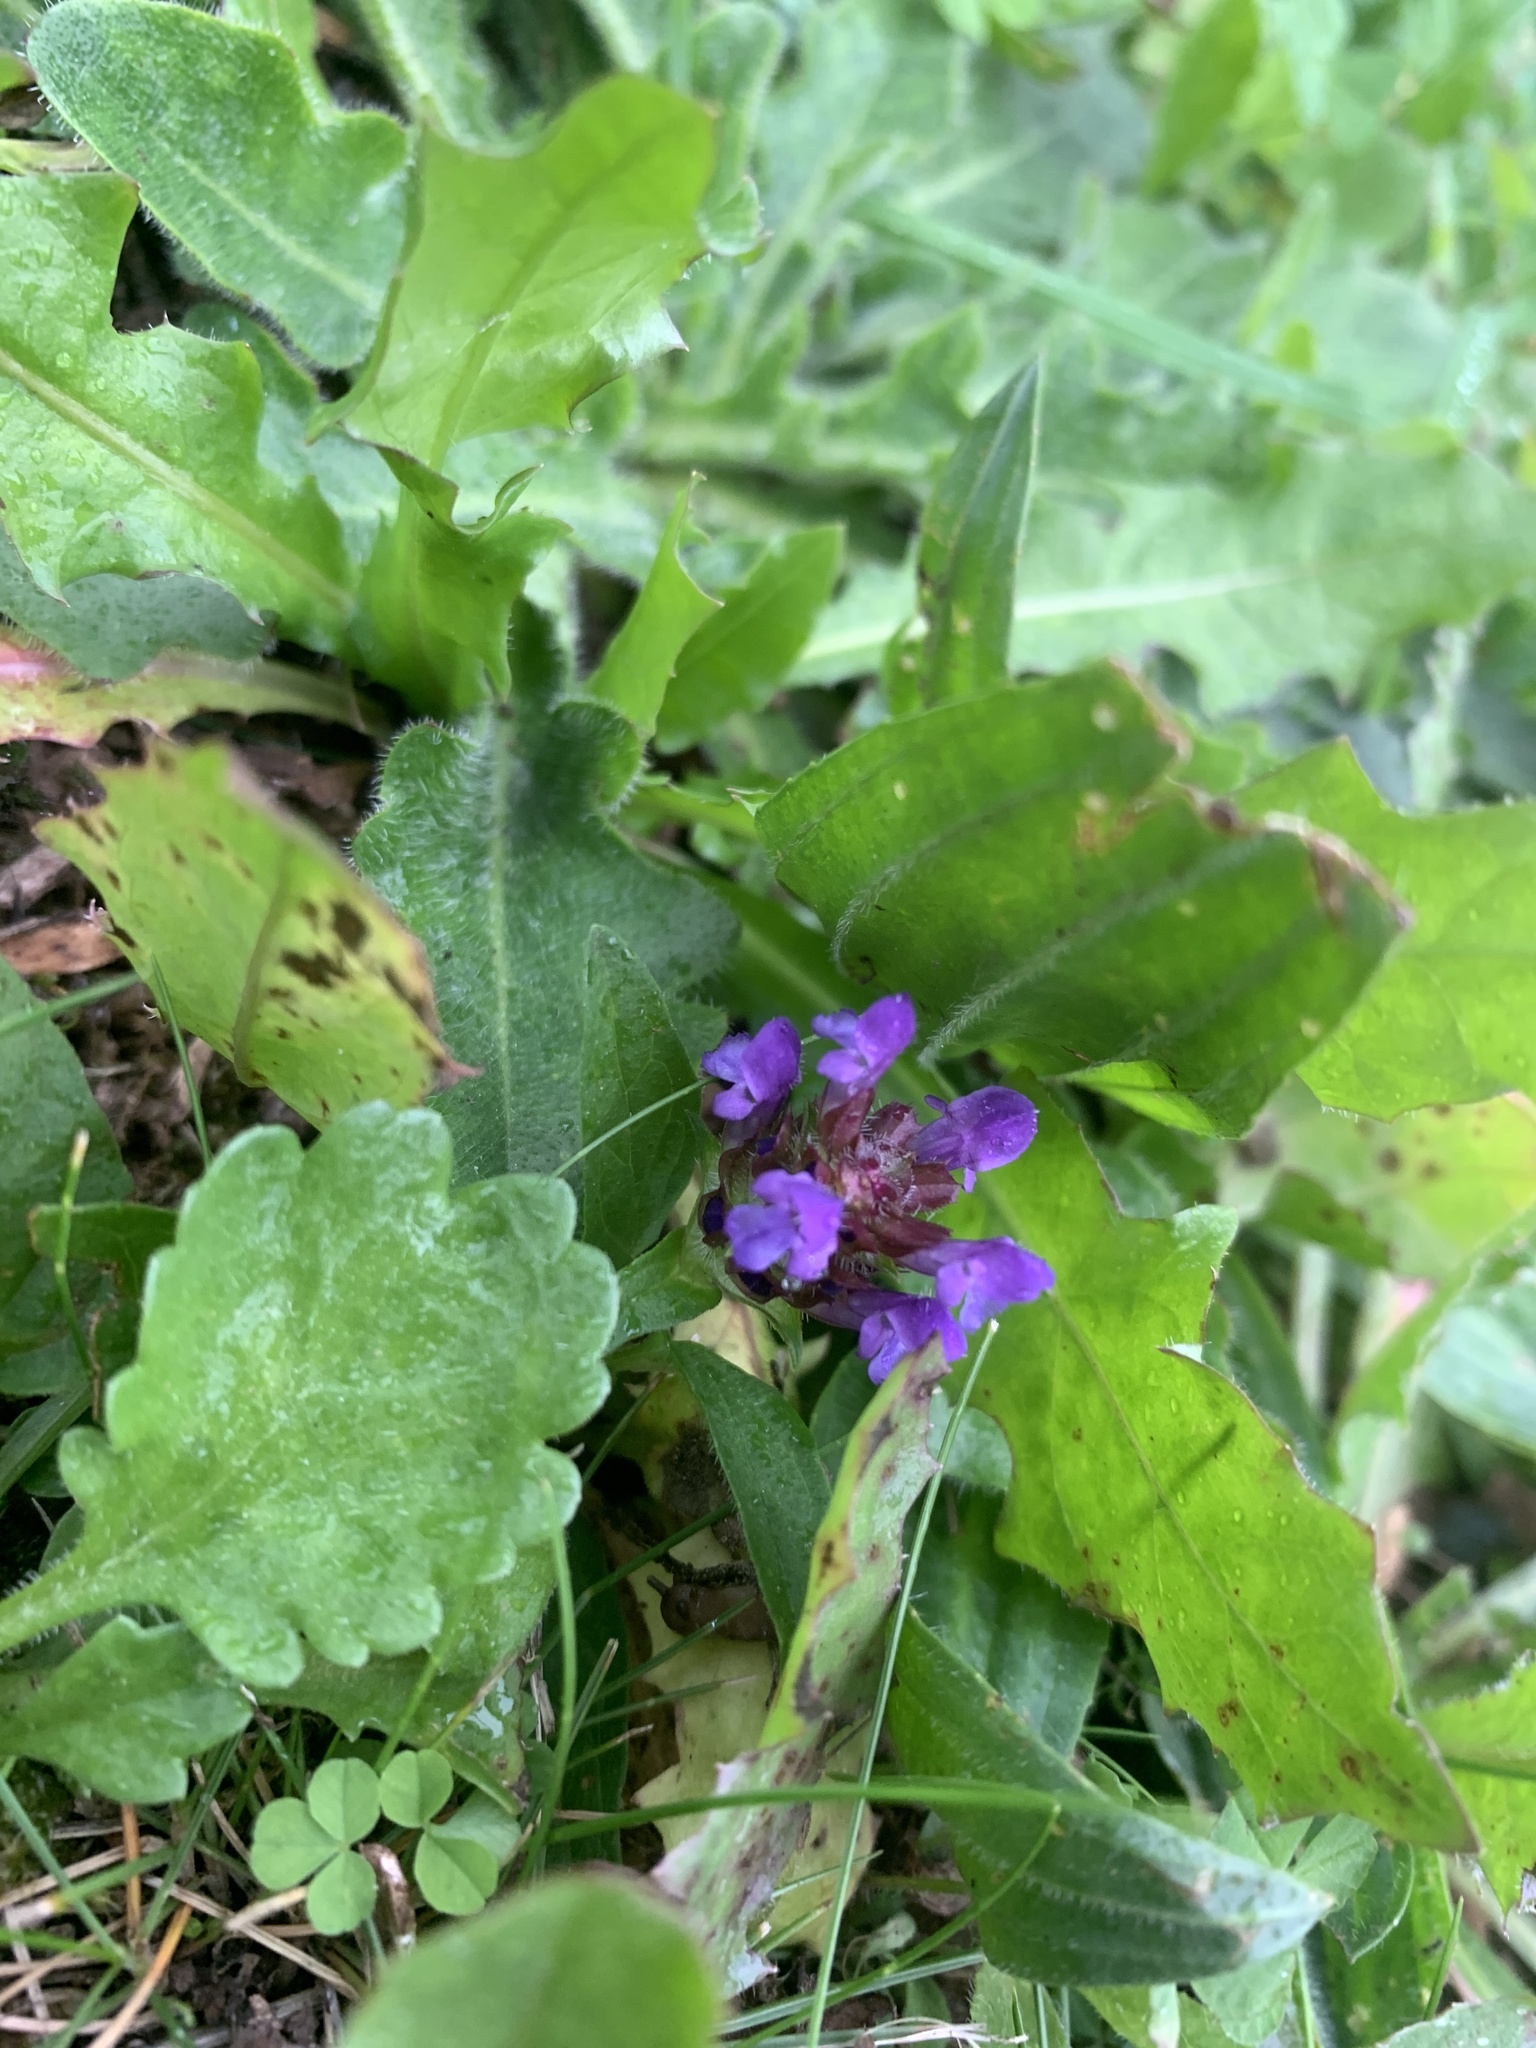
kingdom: Plantae
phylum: Tracheophyta
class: Magnoliopsida
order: Lamiales
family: Lamiaceae
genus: Prunella
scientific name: Prunella vulgaris
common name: Heal-all
